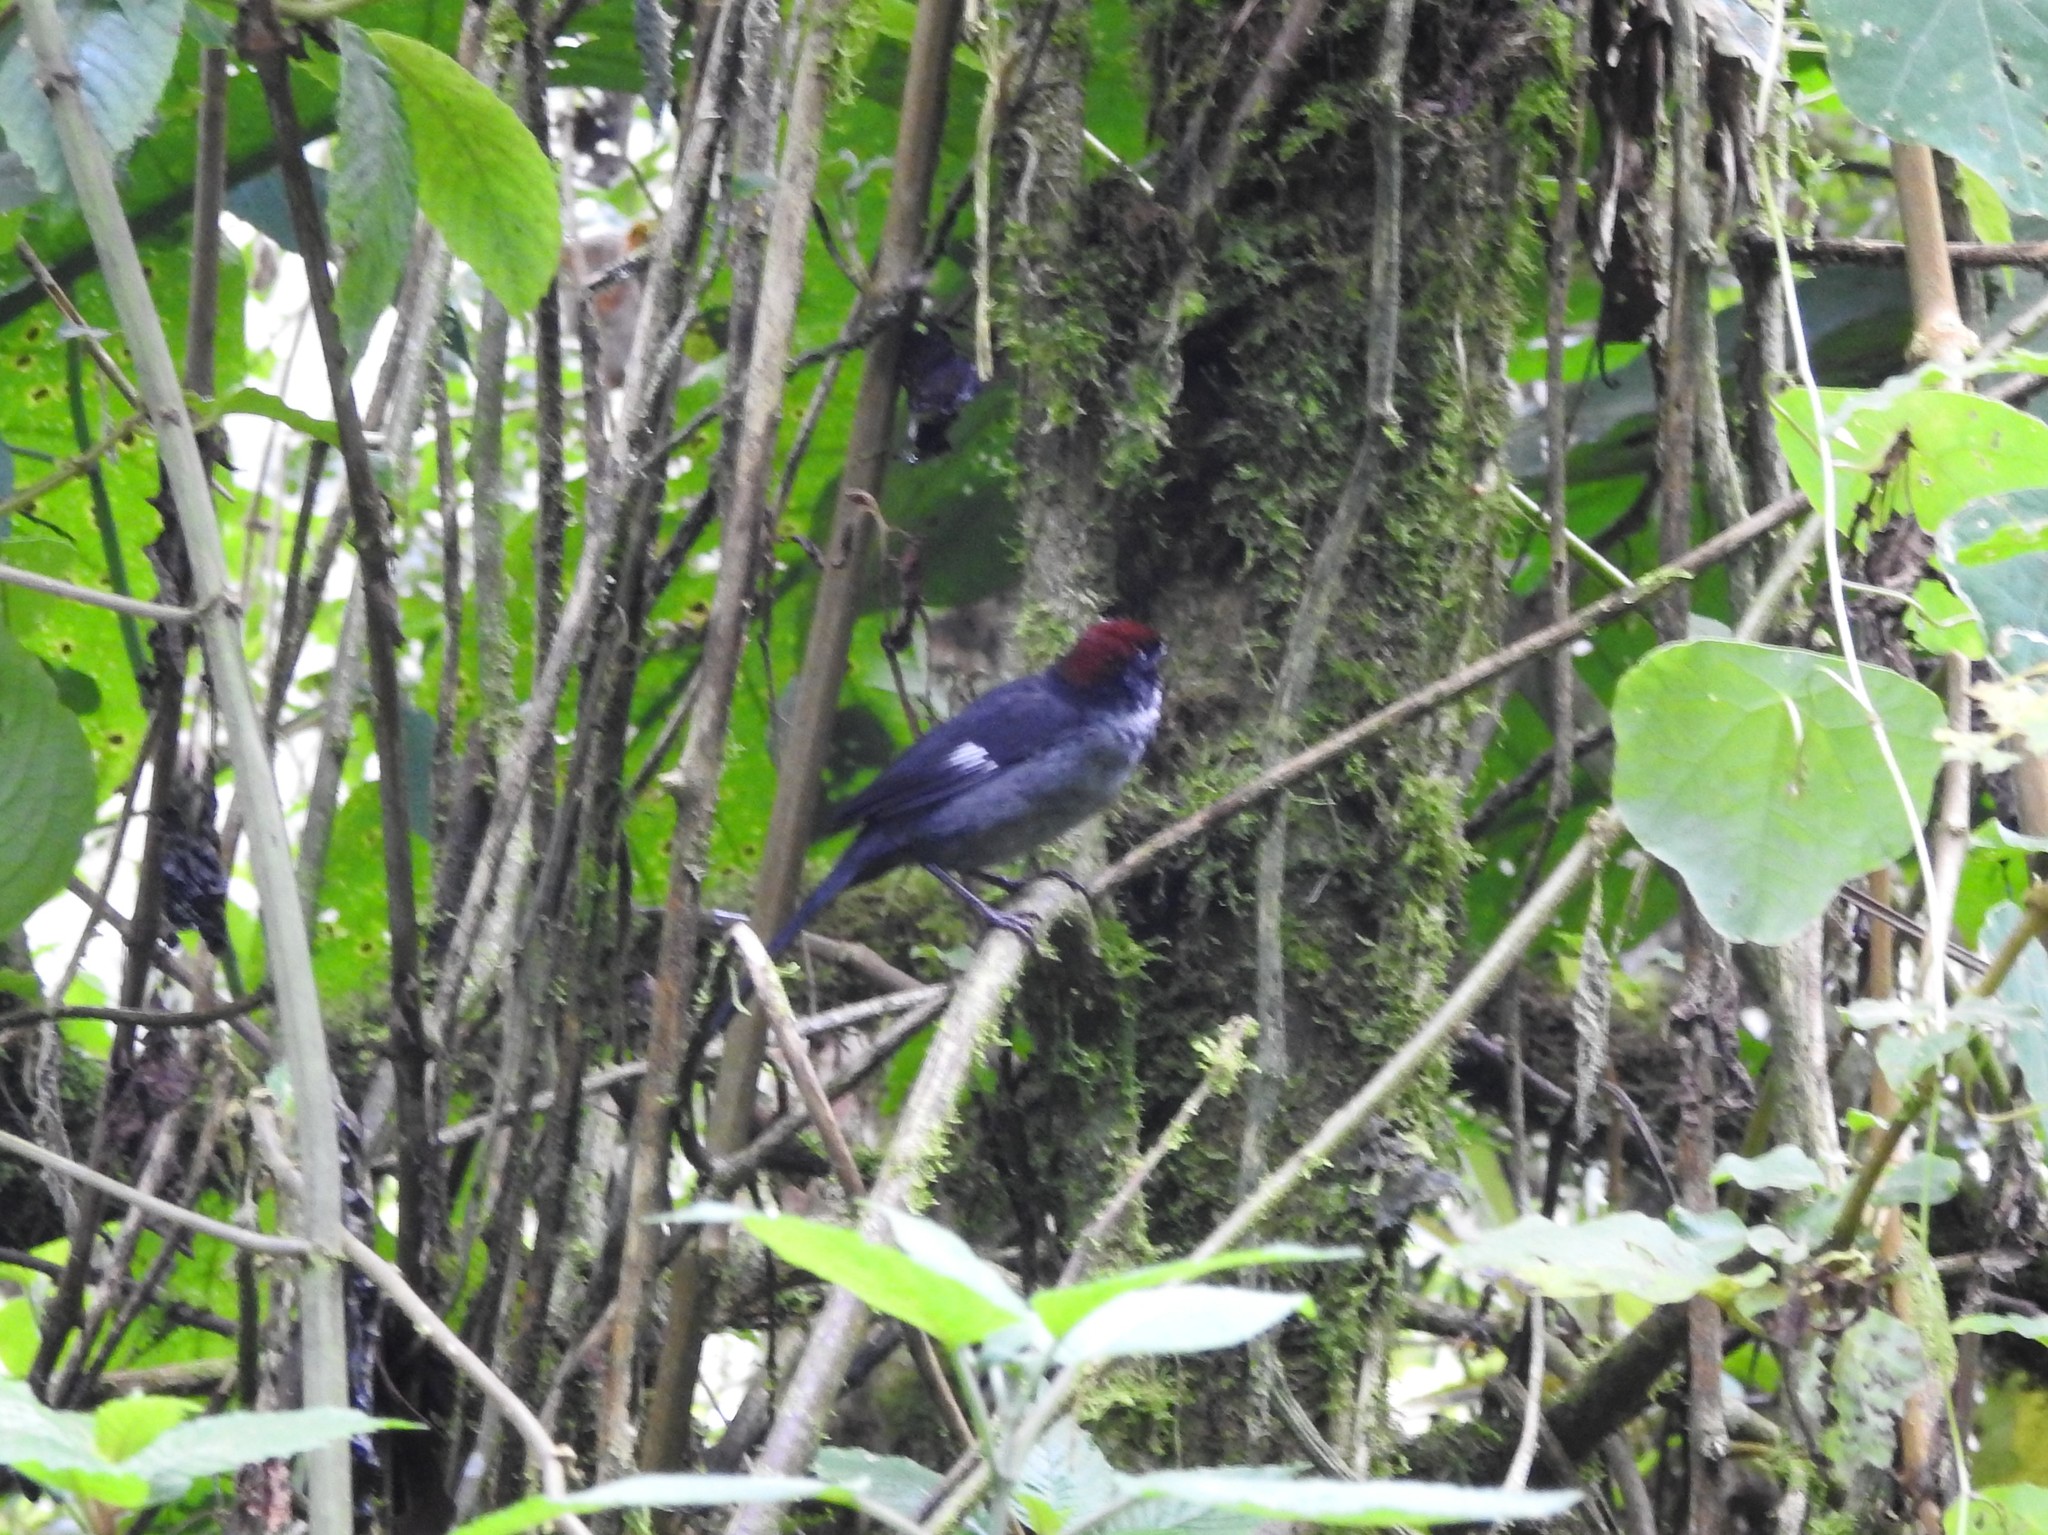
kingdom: Animalia
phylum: Chordata
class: Aves
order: Passeriformes
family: Passerellidae
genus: Atlapetes
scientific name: Atlapetes schistaceus
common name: Slaty brushfinch
